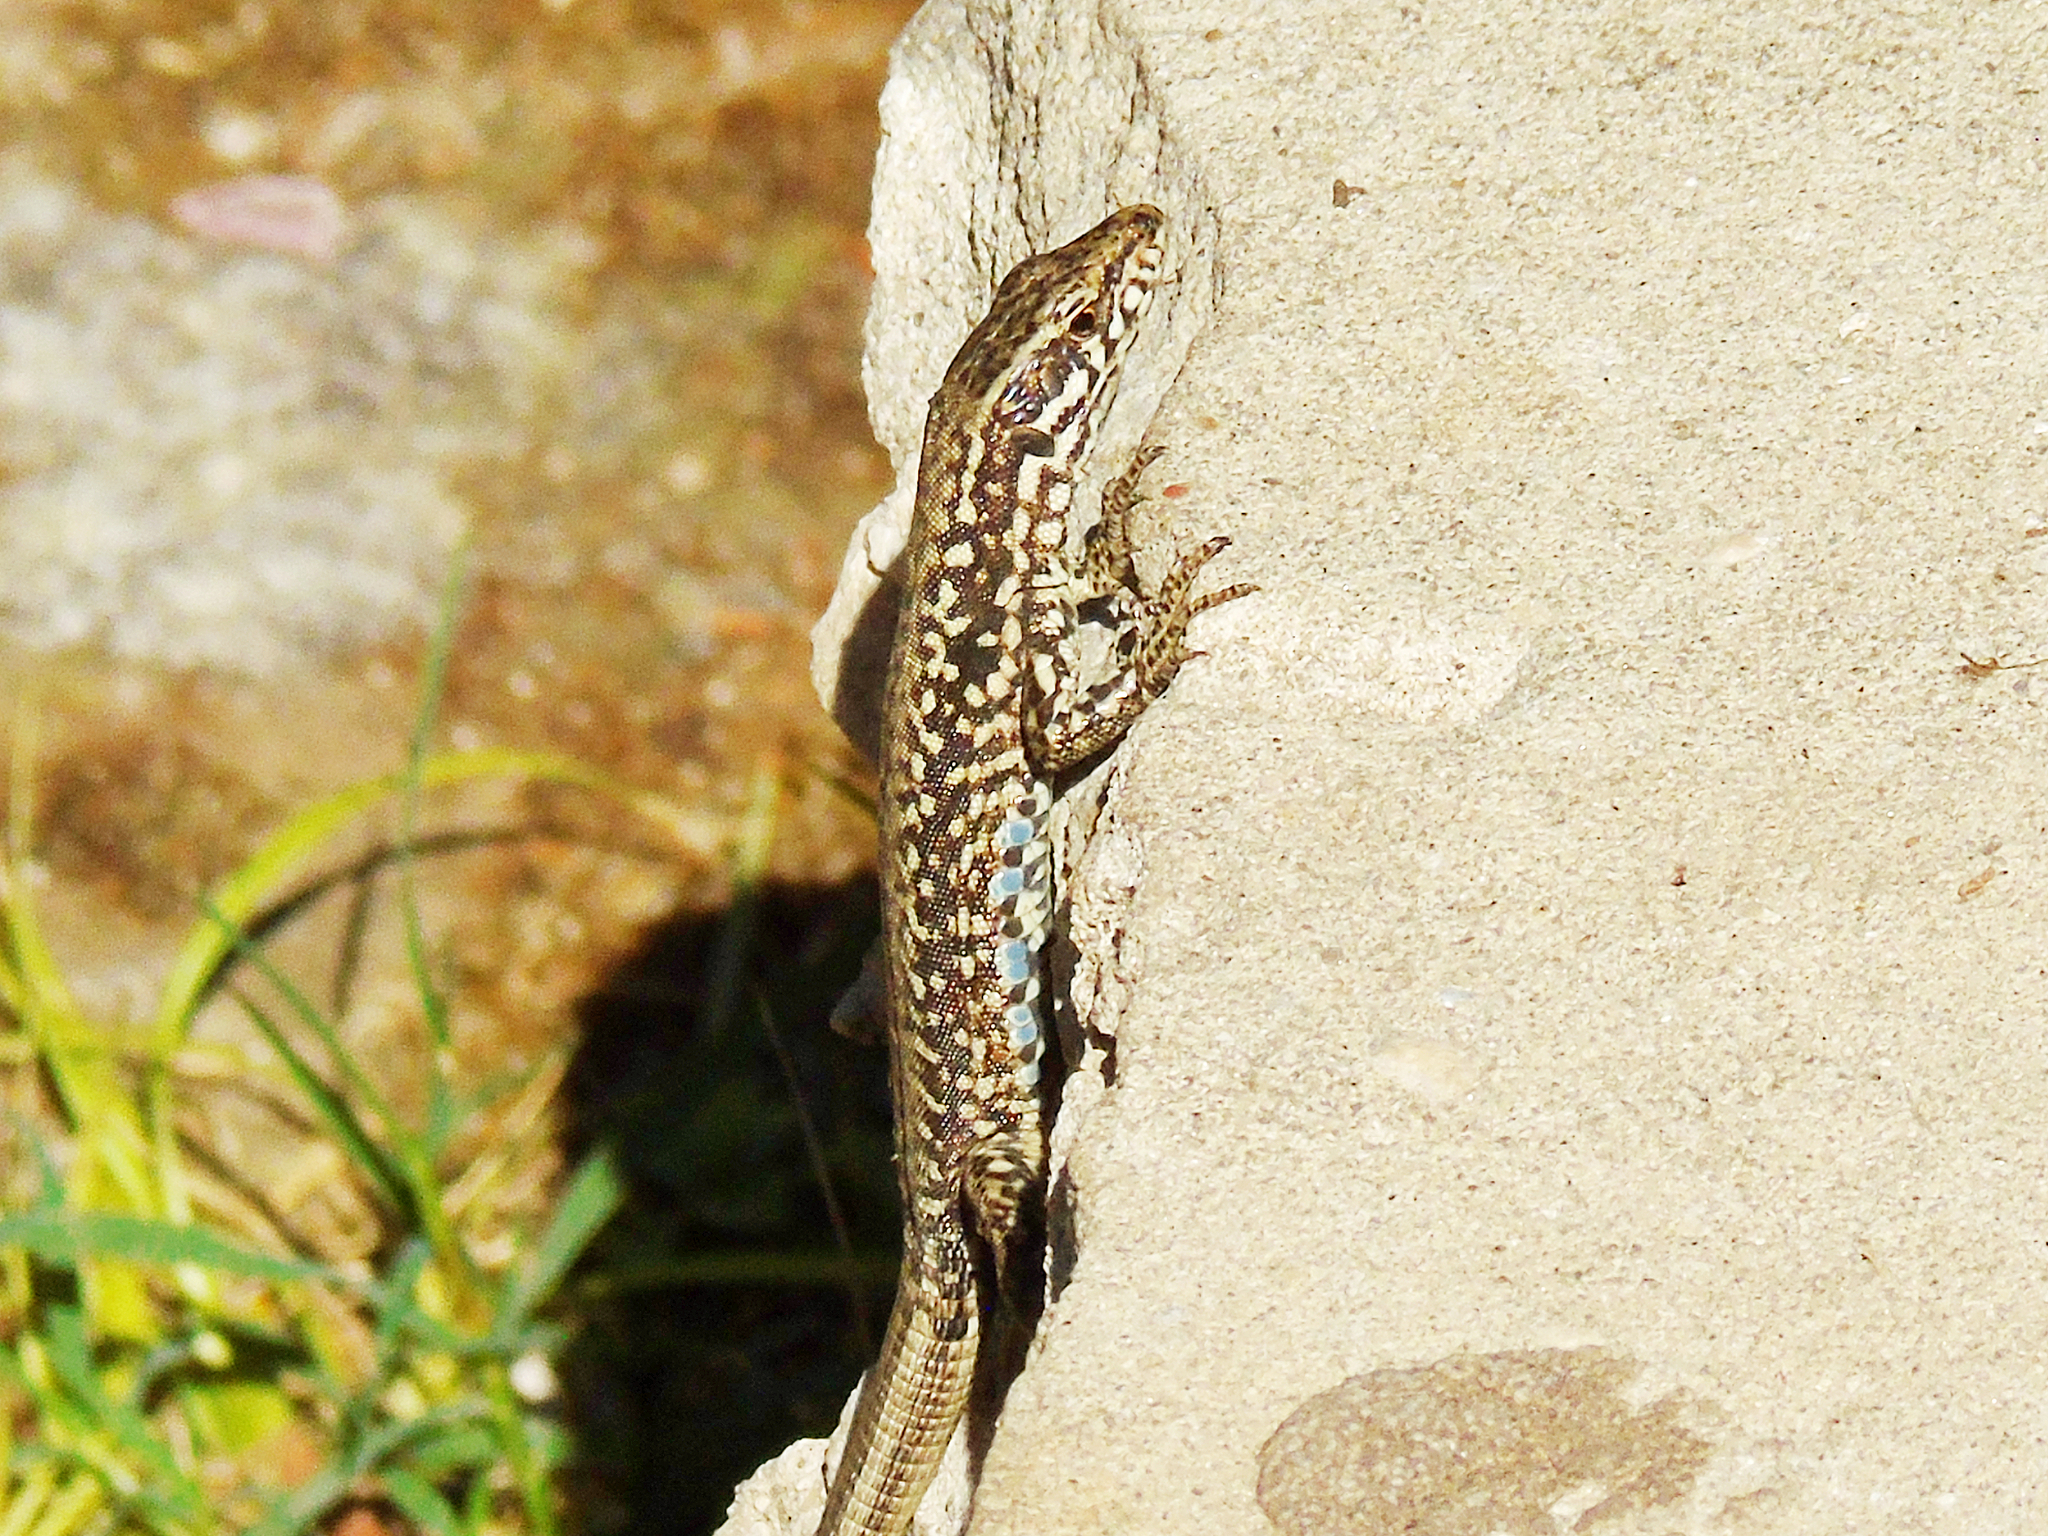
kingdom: Animalia
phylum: Chordata
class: Squamata
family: Lacertidae
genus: Podarcis
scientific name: Podarcis muralis
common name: Common wall lizard
